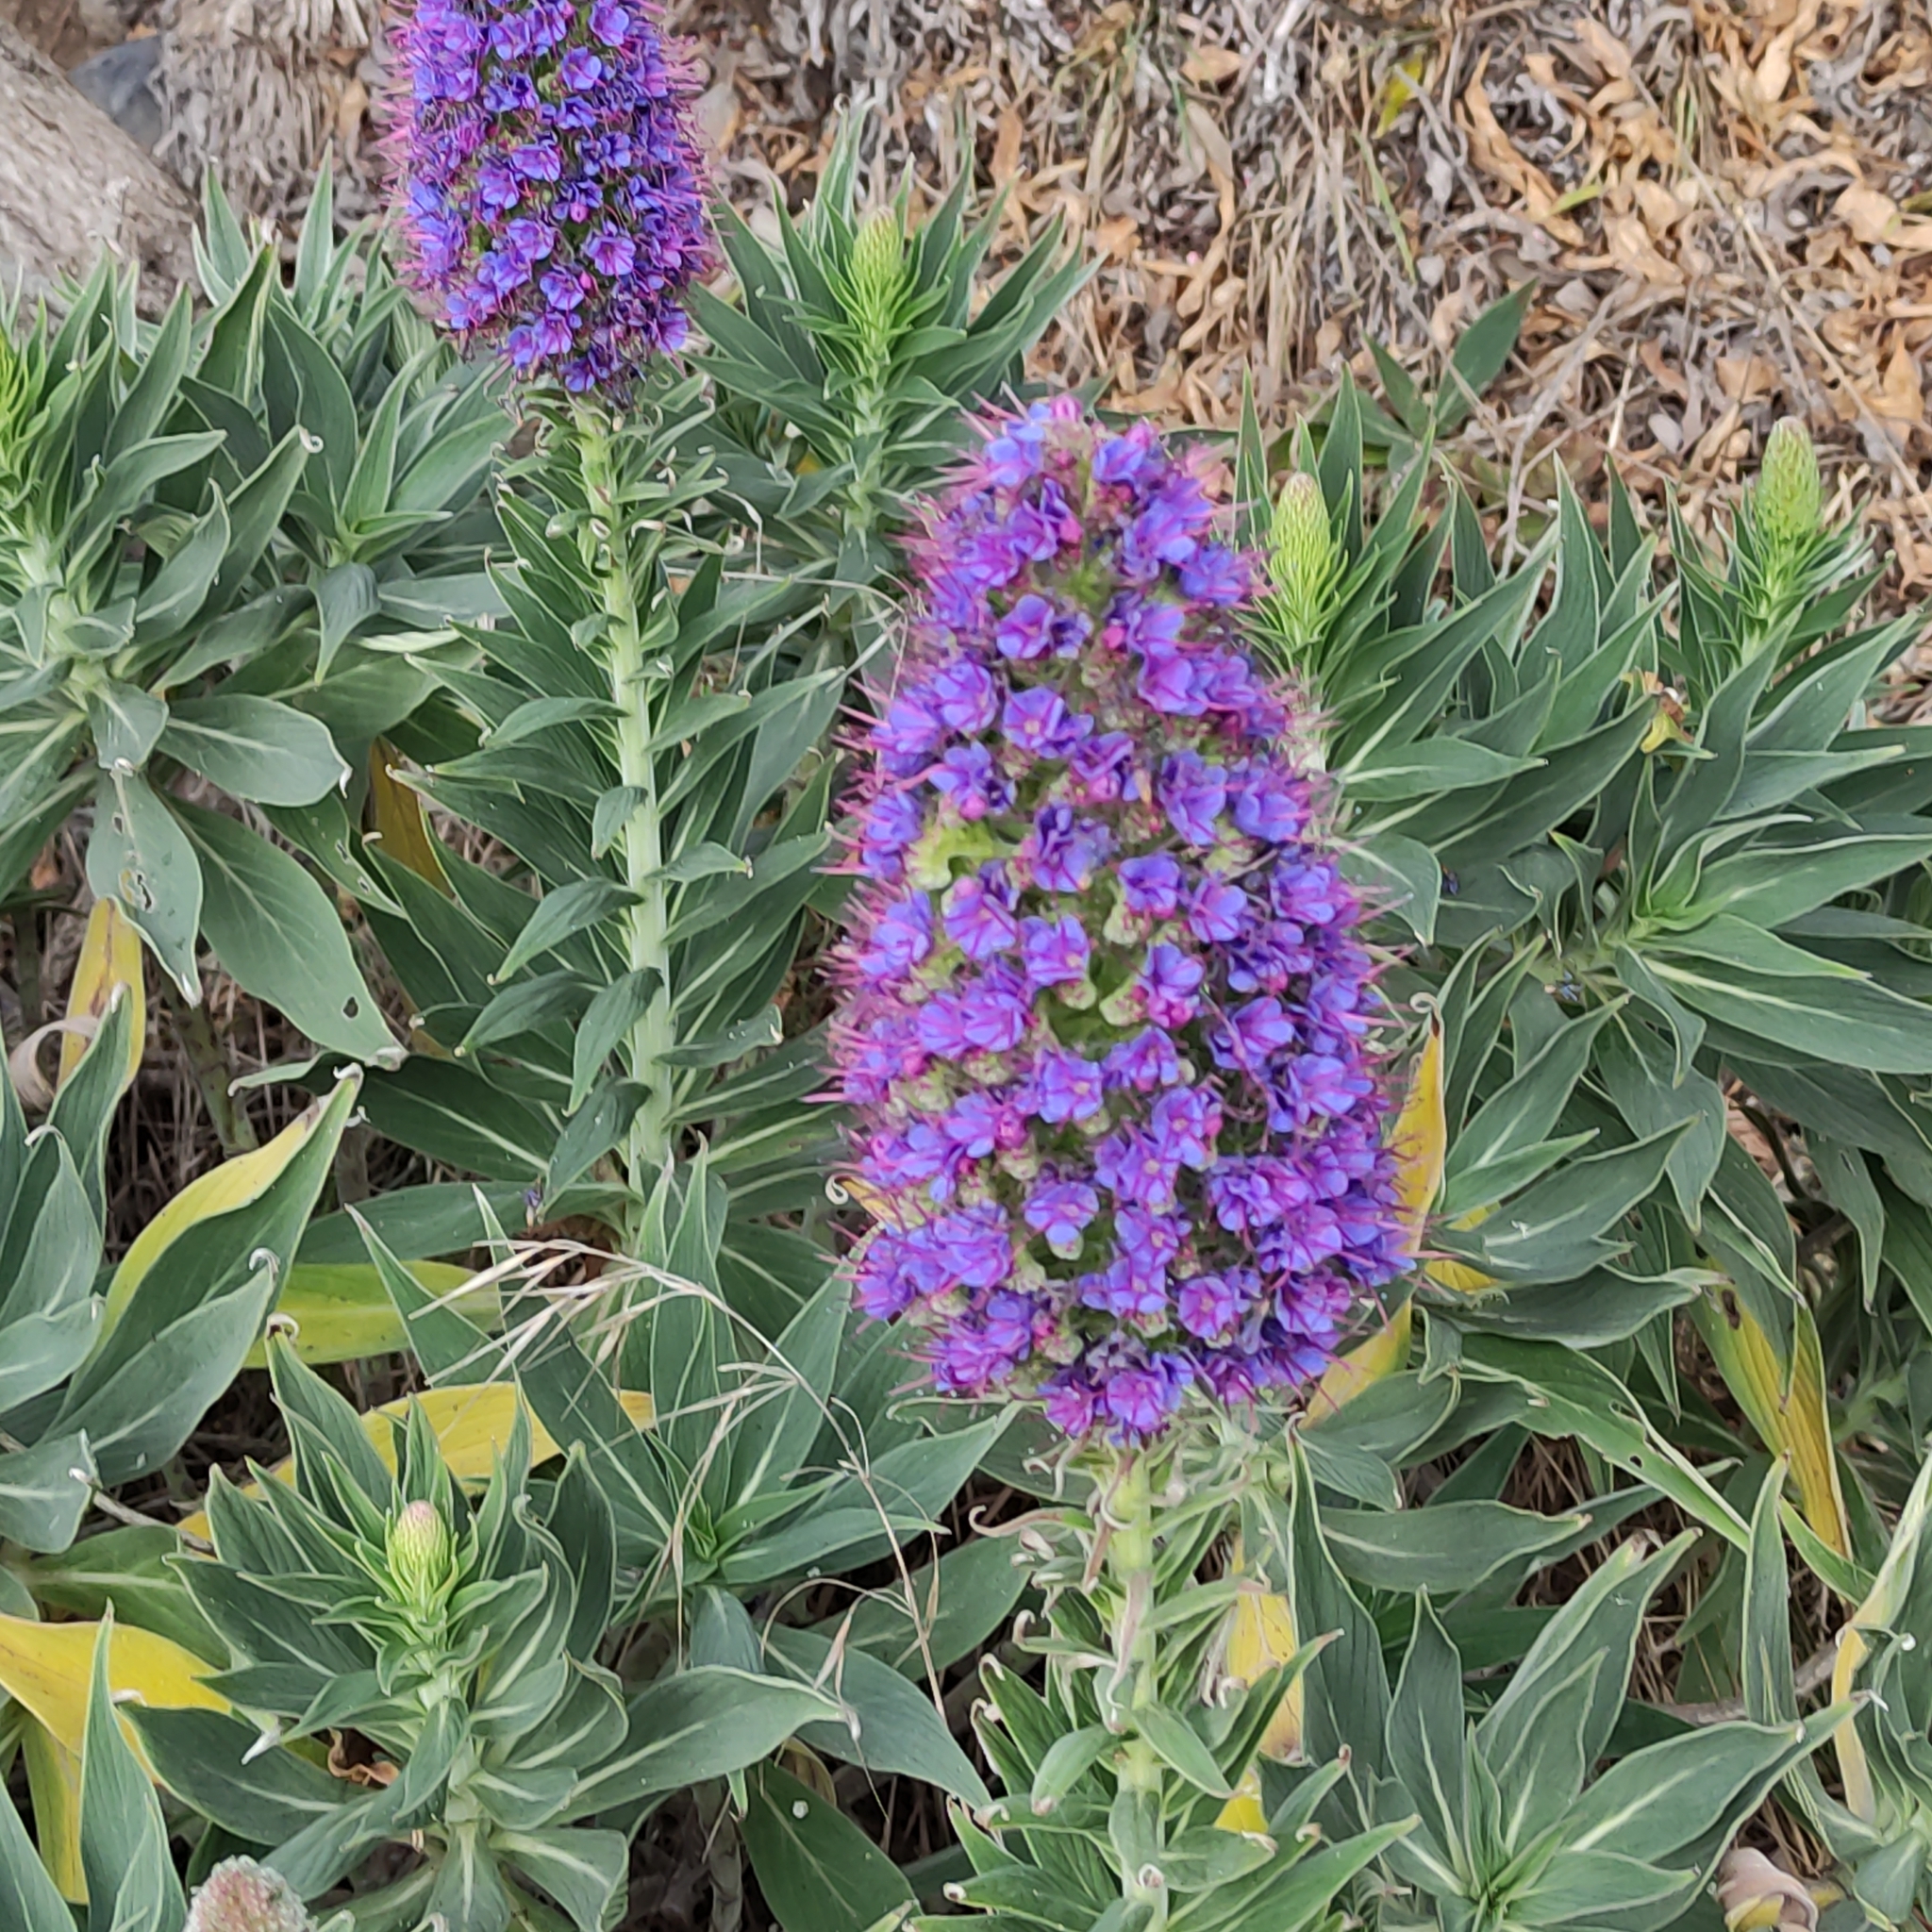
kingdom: Plantae
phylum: Tracheophyta
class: Magnoliopsida
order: Boraginales
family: Boraginaceae
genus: Echium
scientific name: Echium candicans
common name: Pride of madeira
